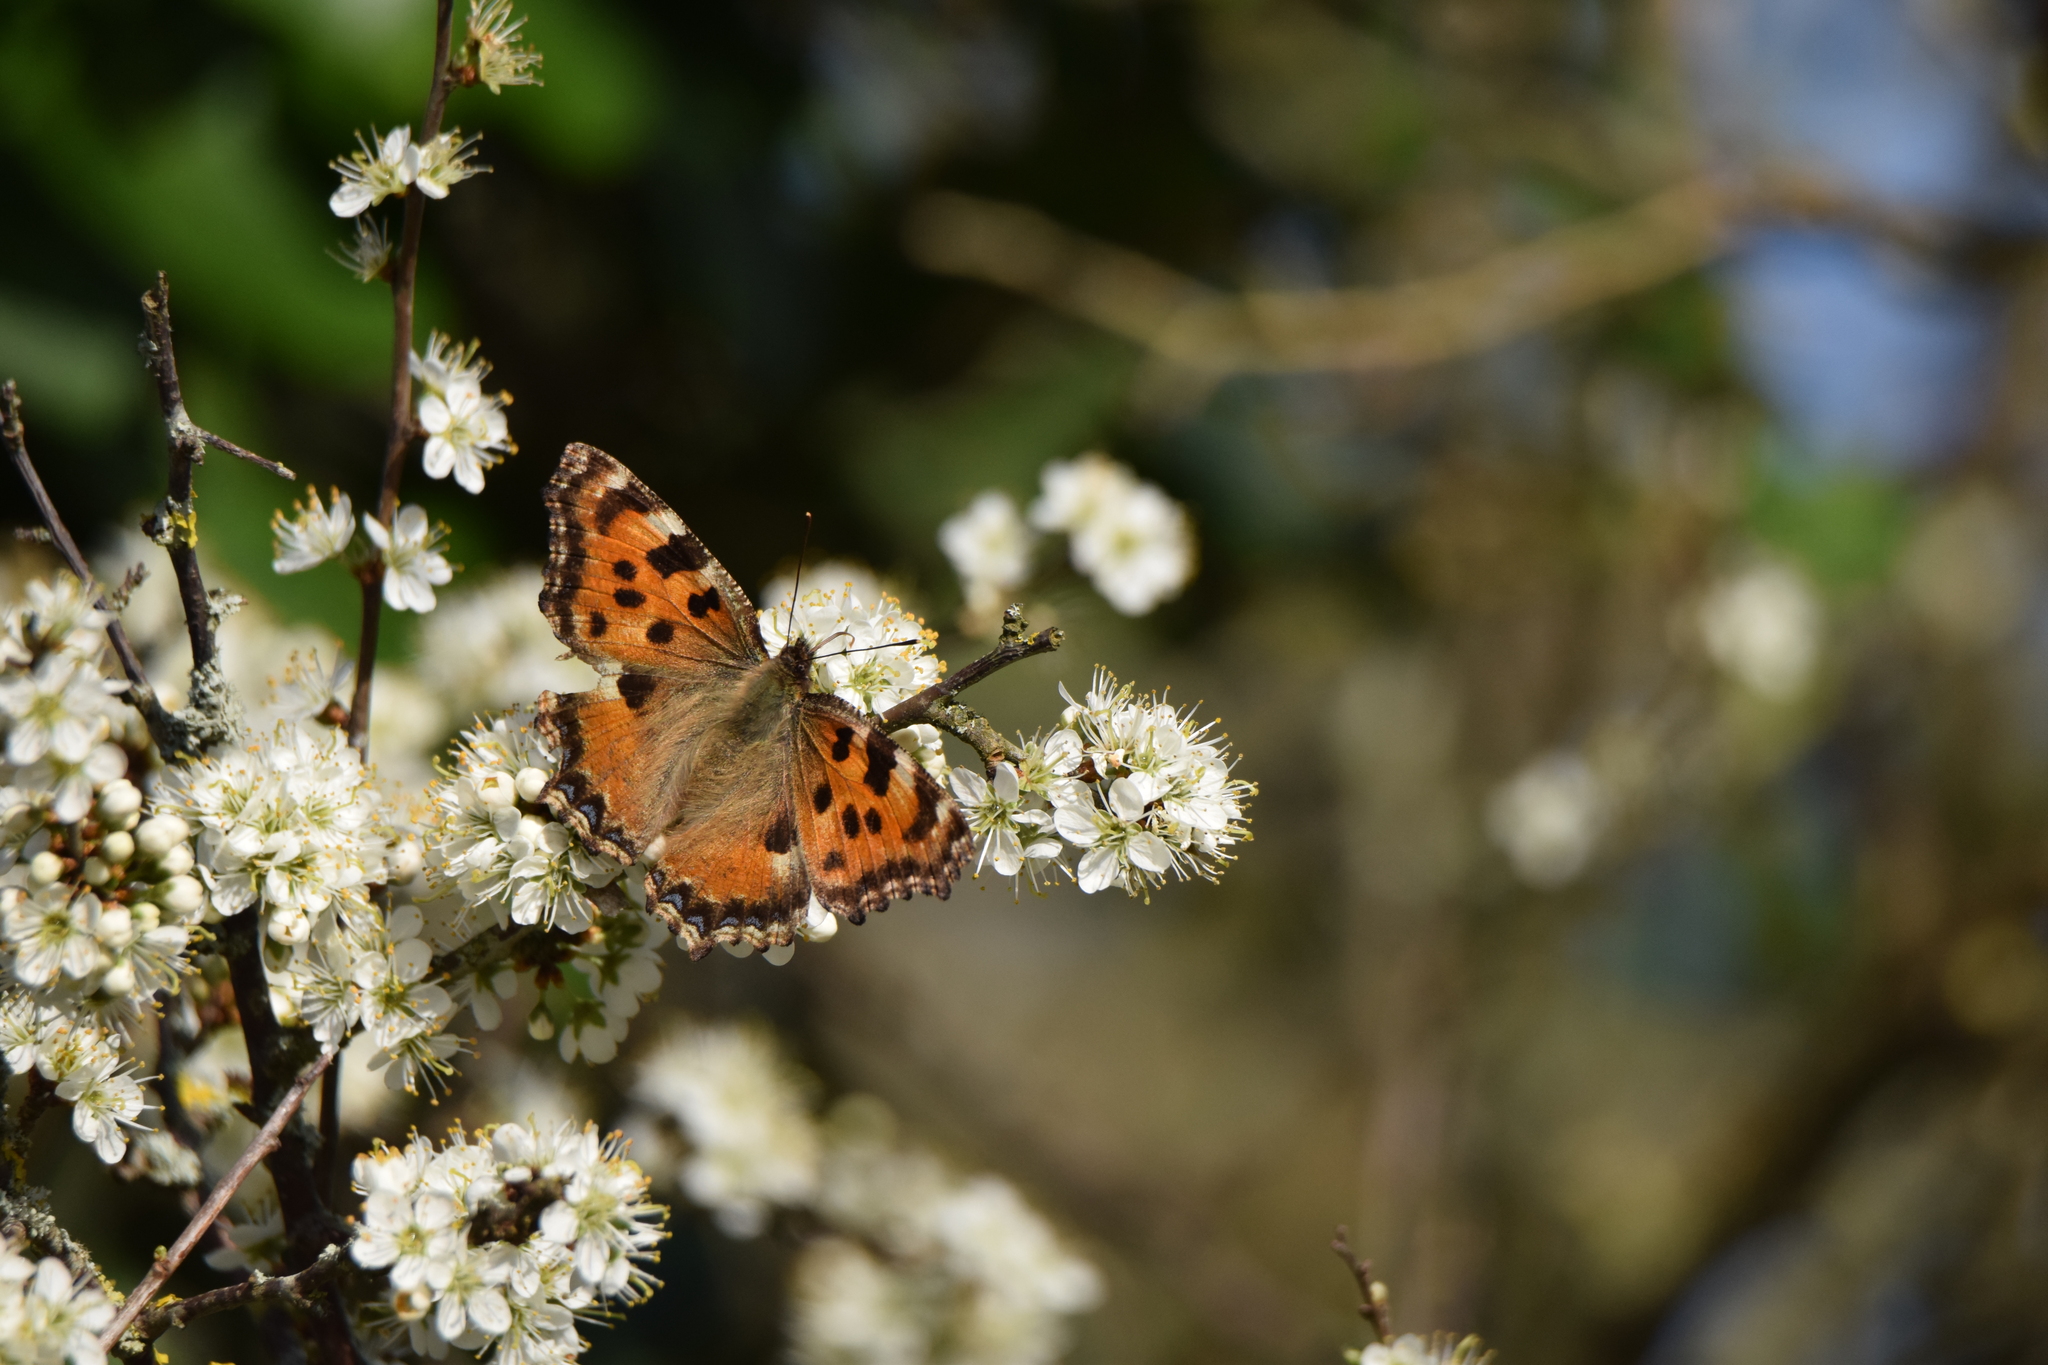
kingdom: Animalia
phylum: Arthropoda
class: Insecta
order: Lepidoptera
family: Nymphalidae
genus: Nymphalis
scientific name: Nymphalis polychloros
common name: Large tortoiseshell
